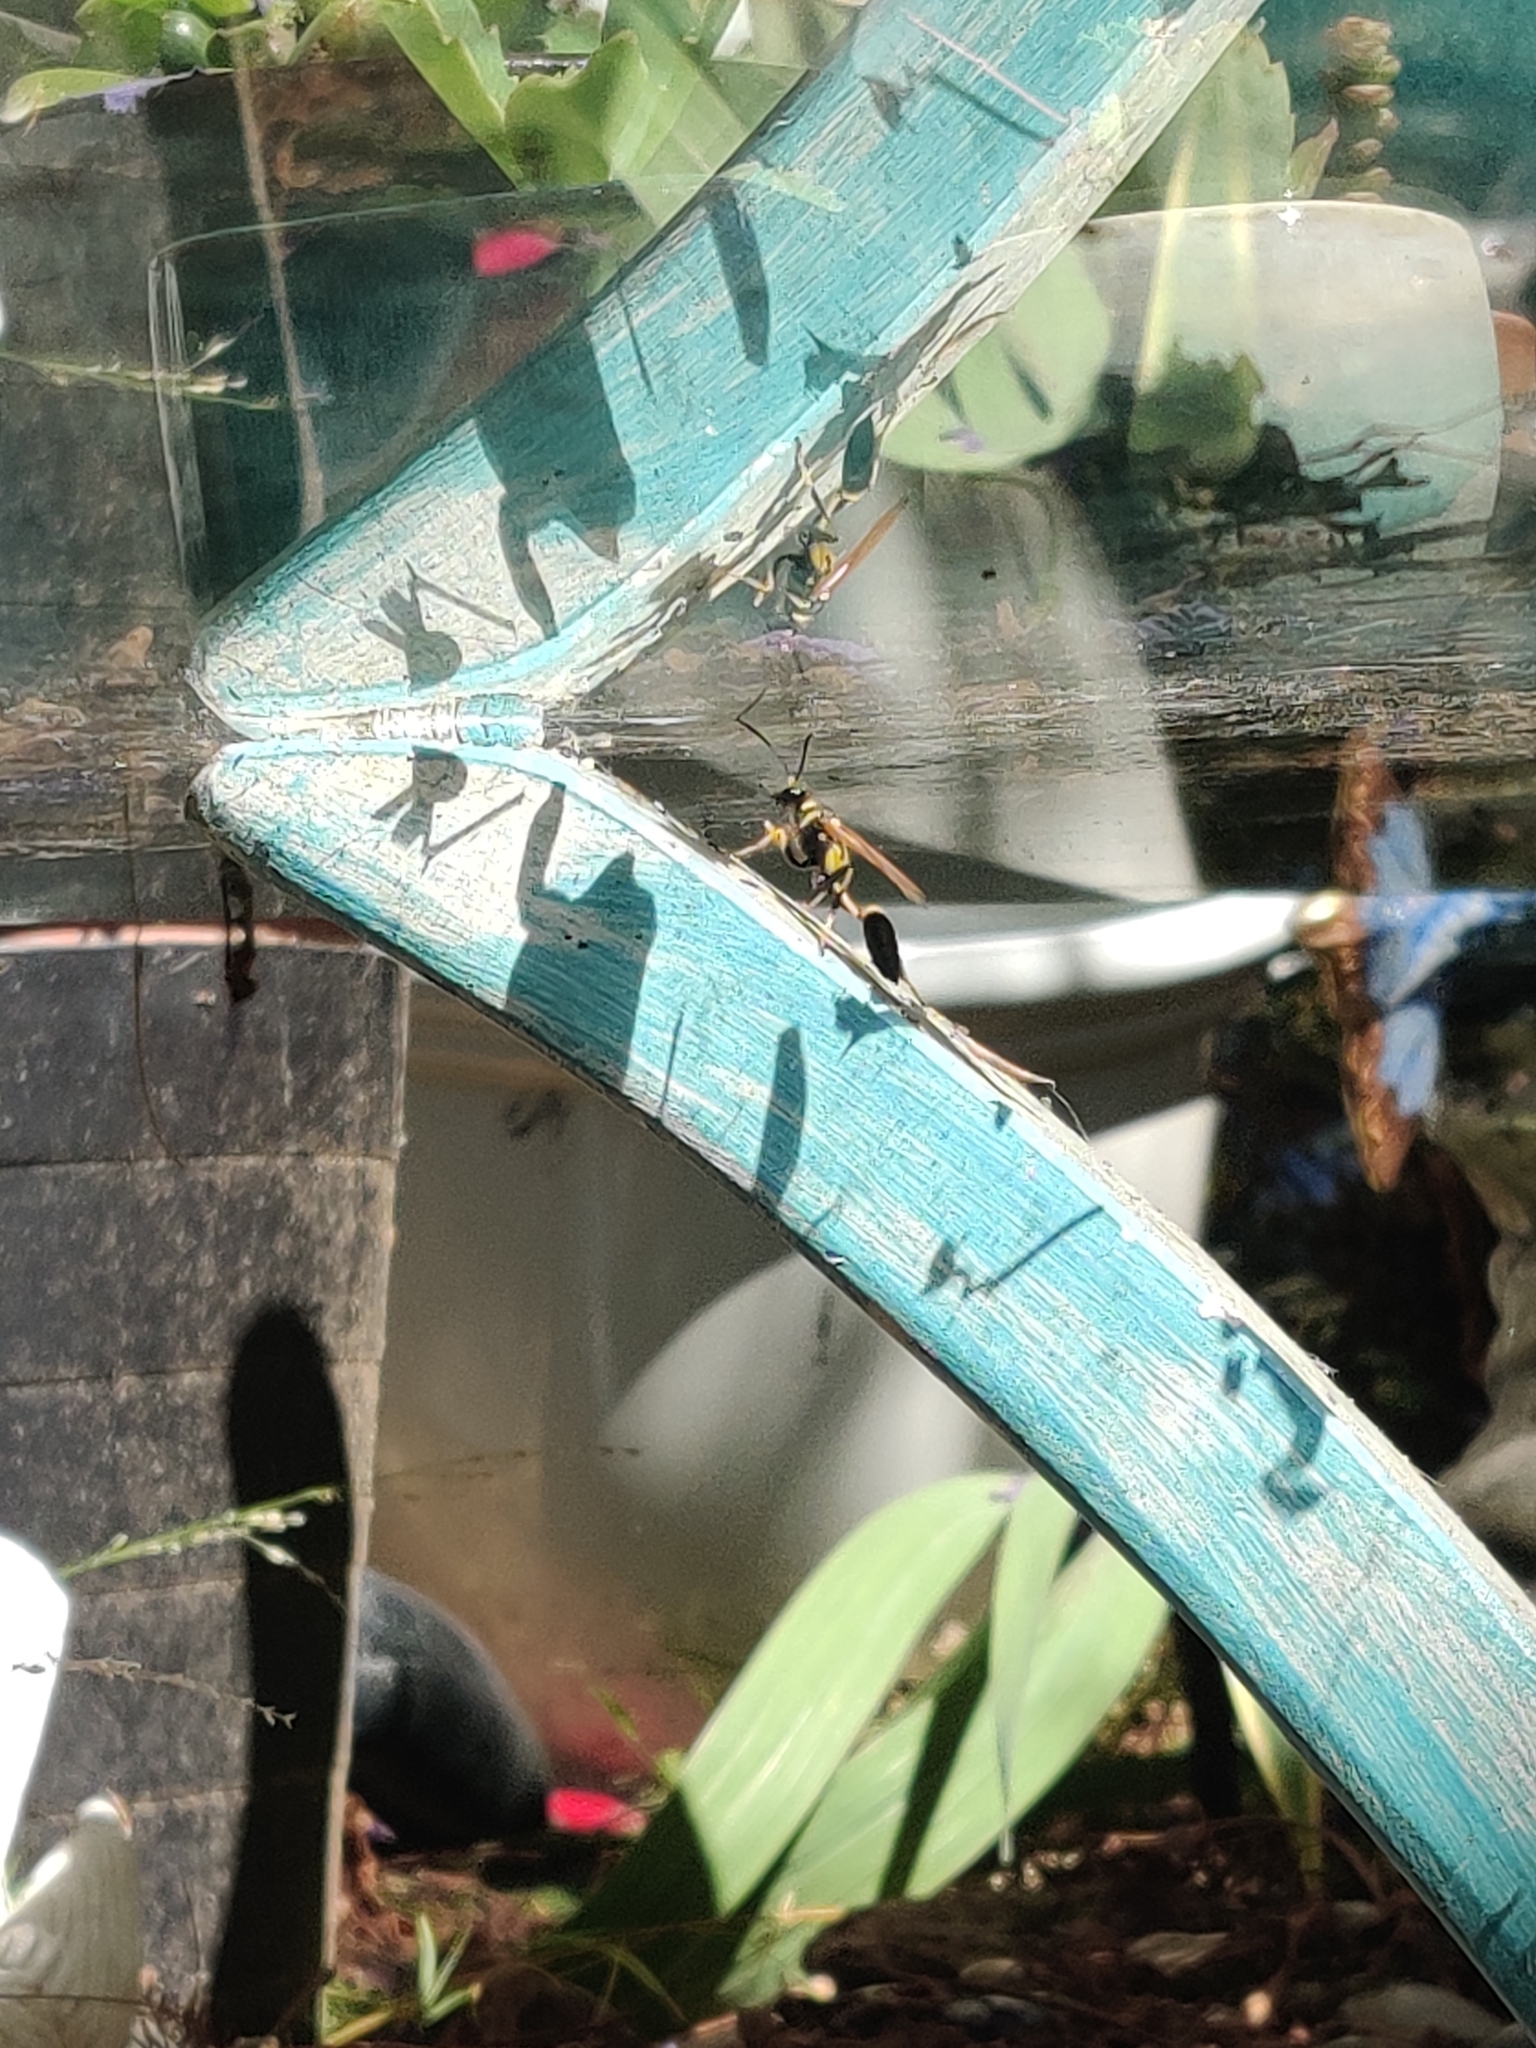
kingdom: Animalia
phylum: Arthropoda
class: Insecta
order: Hymenoptera
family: Sphecidae
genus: Sceliphron
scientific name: Sceliphron caementarium
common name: Mud dauber
